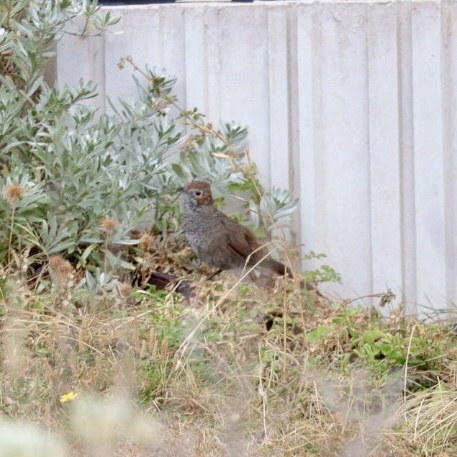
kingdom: Animalia
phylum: Chordata
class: Aves
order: Passeriformes
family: Dasyornithidae
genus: Dasyornis
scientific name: Dasyornis broadbenti
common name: Rufous bristlebird
